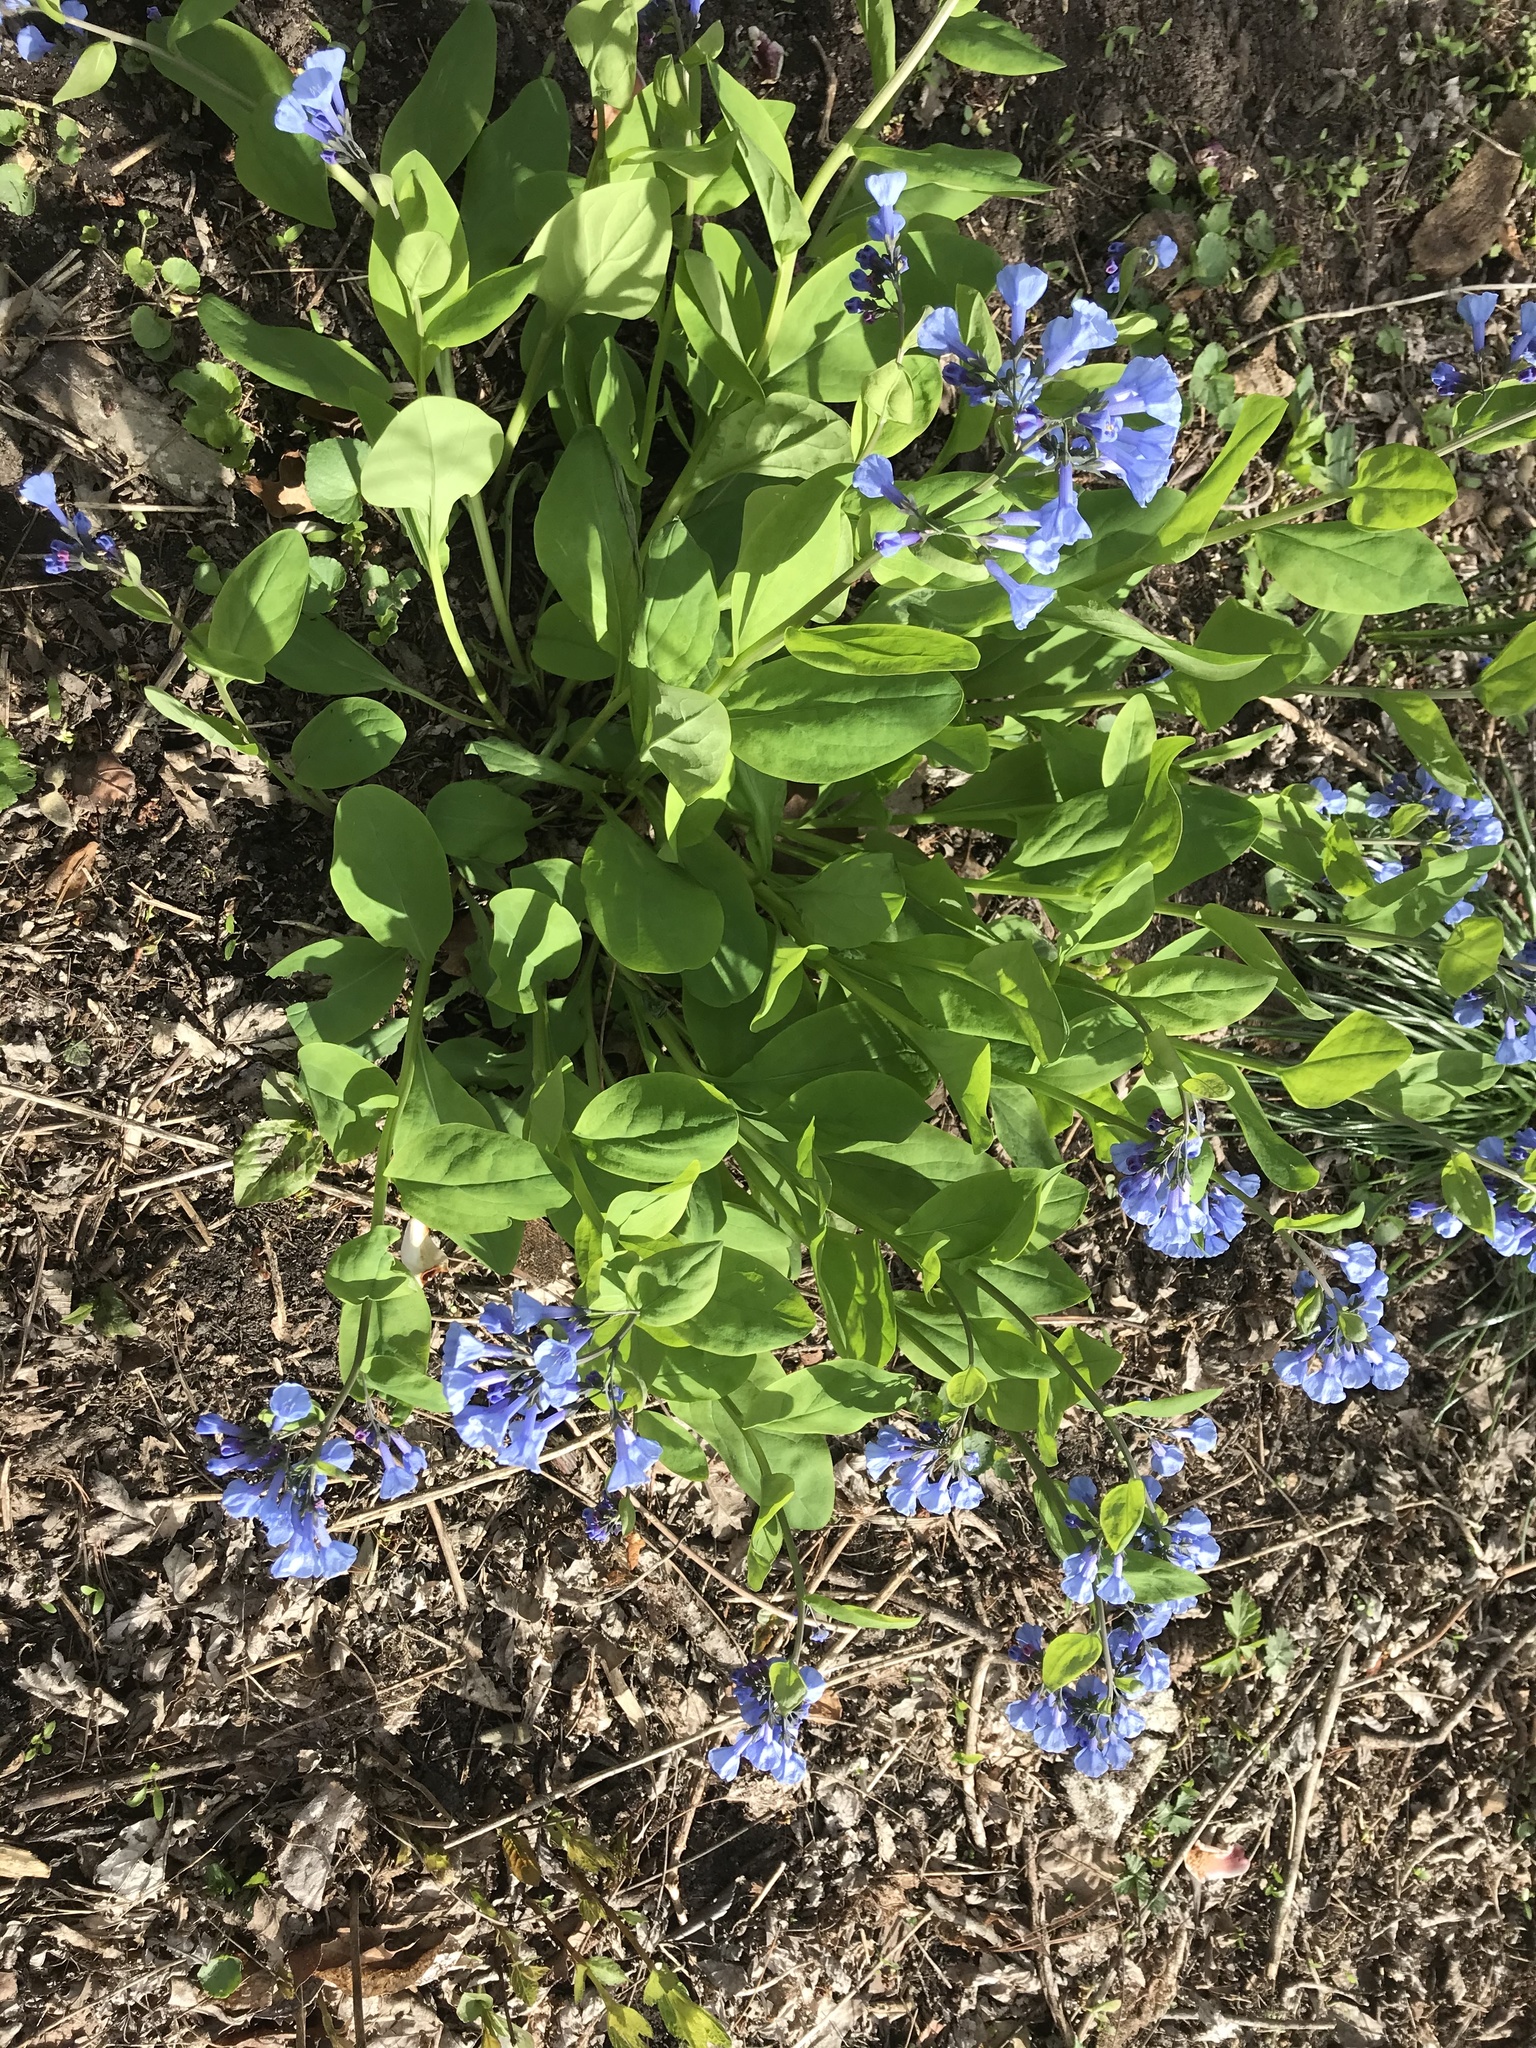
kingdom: Plantae
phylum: Tracheophyta
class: Magnoliopsida
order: Boraginales
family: Boraginaceae
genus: Mertensia
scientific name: Mertensia virginica
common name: Virginia bluebells
